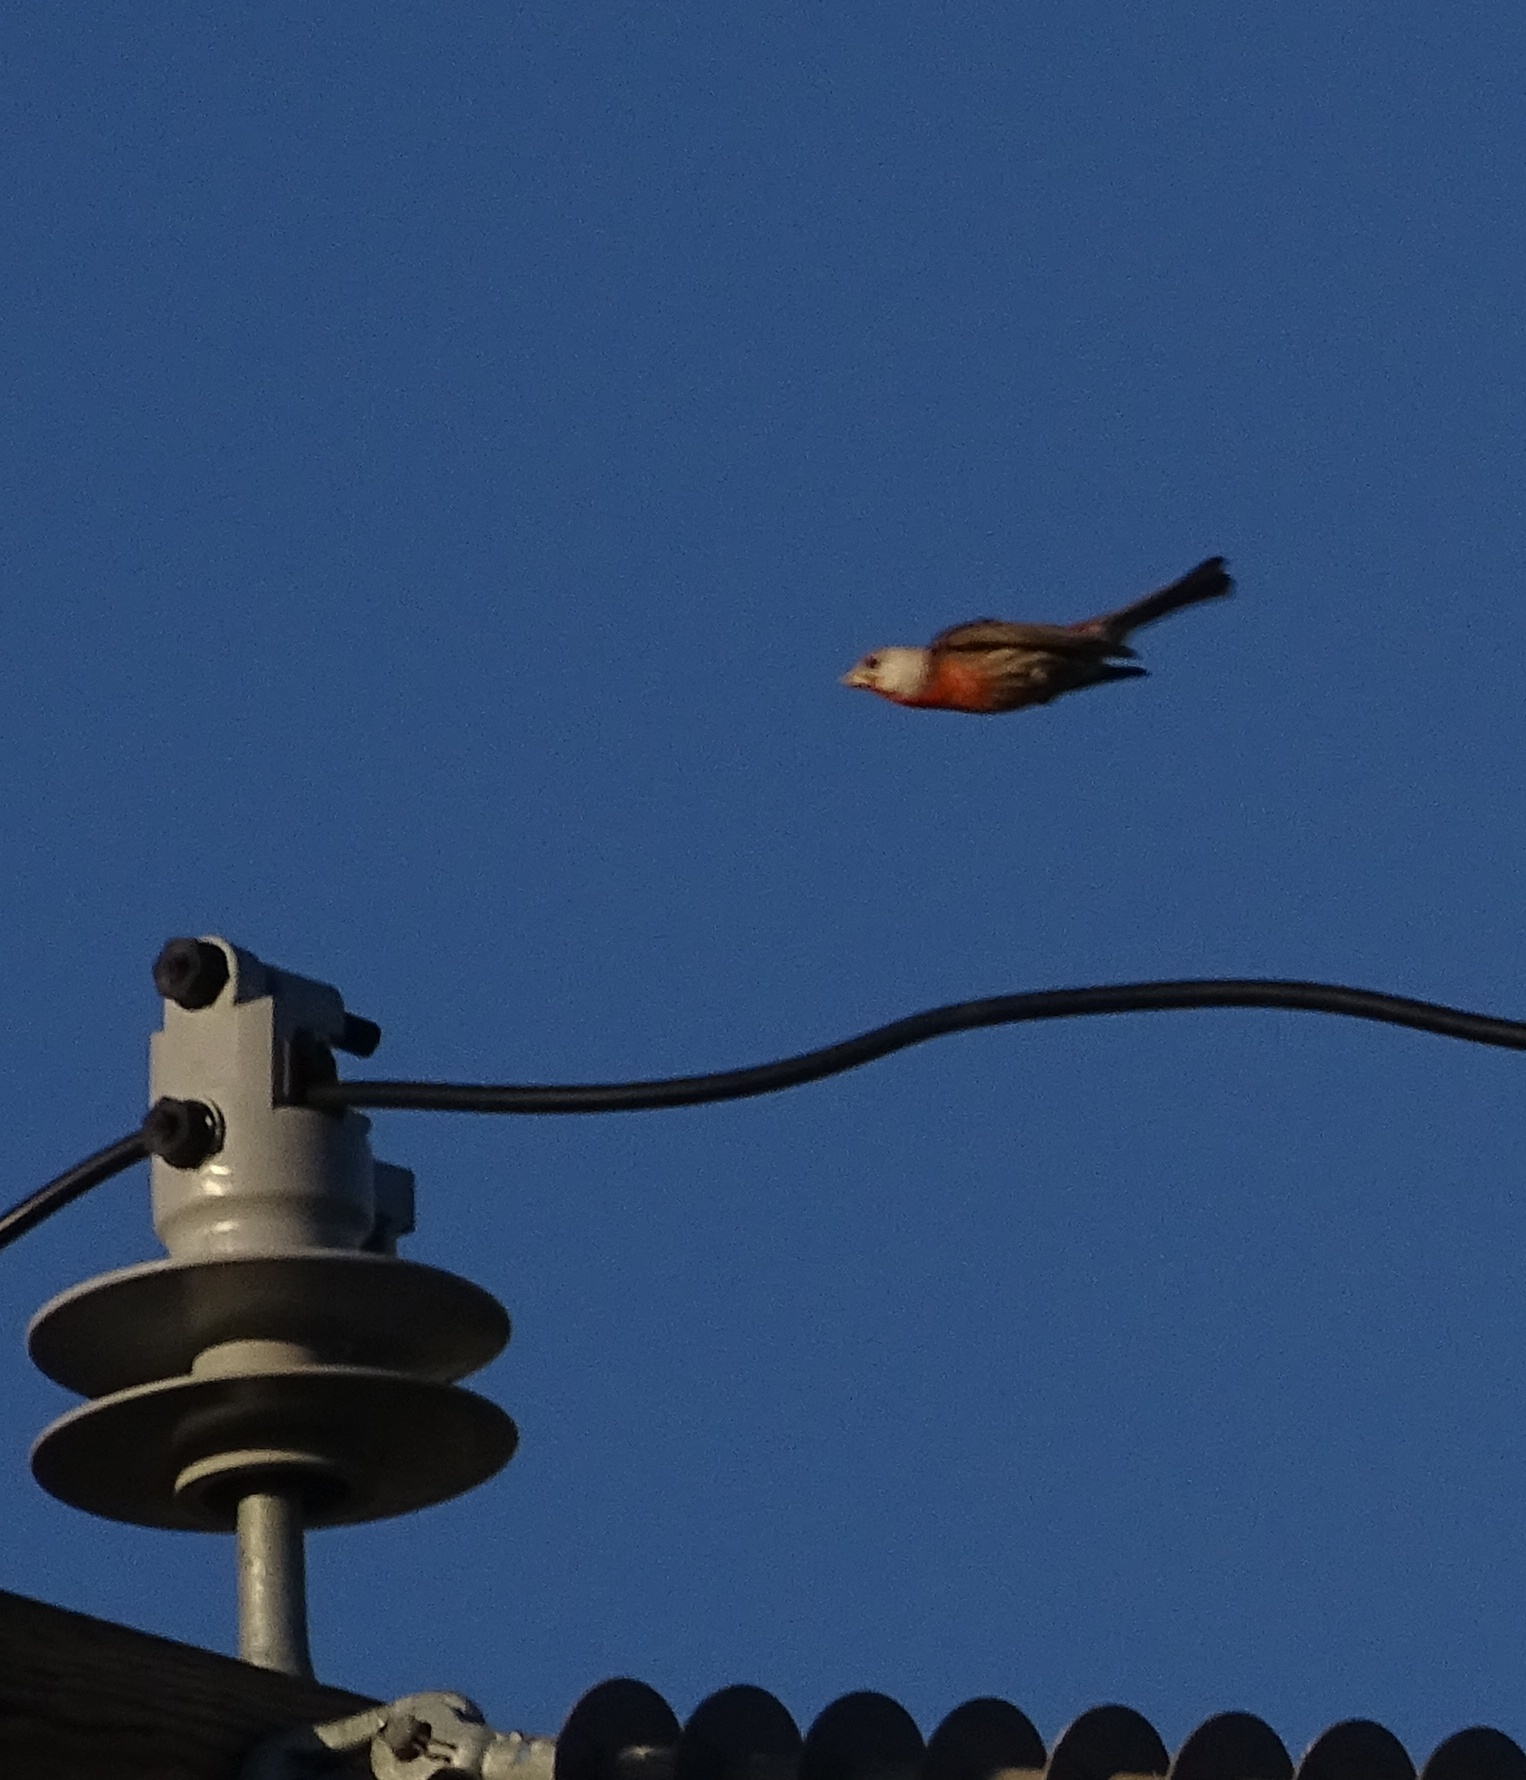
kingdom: Animalia
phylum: Chordata
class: Aves
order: Passeriformes
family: Fringillidae
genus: Haemorhous
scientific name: Haemorhous mexicanus
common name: House finch
